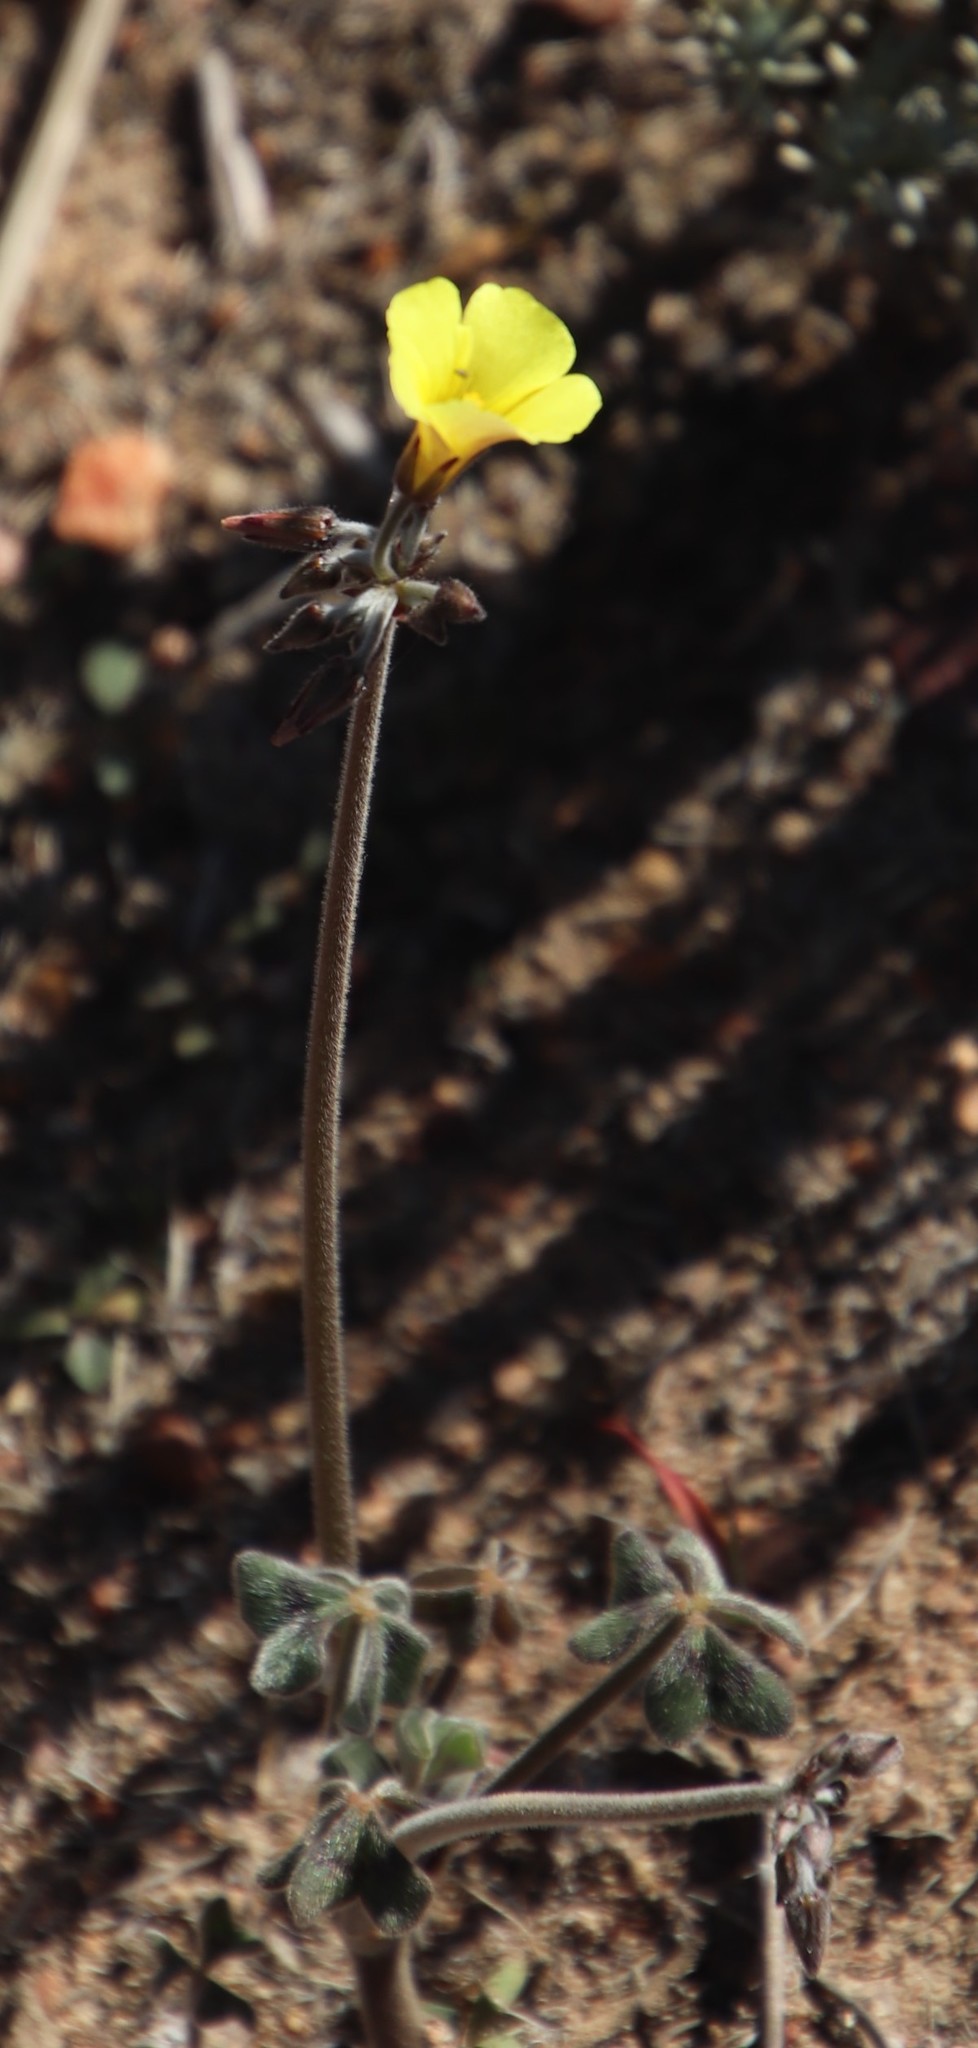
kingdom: Plantae
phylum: Tracheophyta
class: Magnoliopsida
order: Oxalidales
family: Oxalidaceae
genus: Oxalis
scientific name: Oxalis pes-caprae
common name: Bermuda-buttercup
